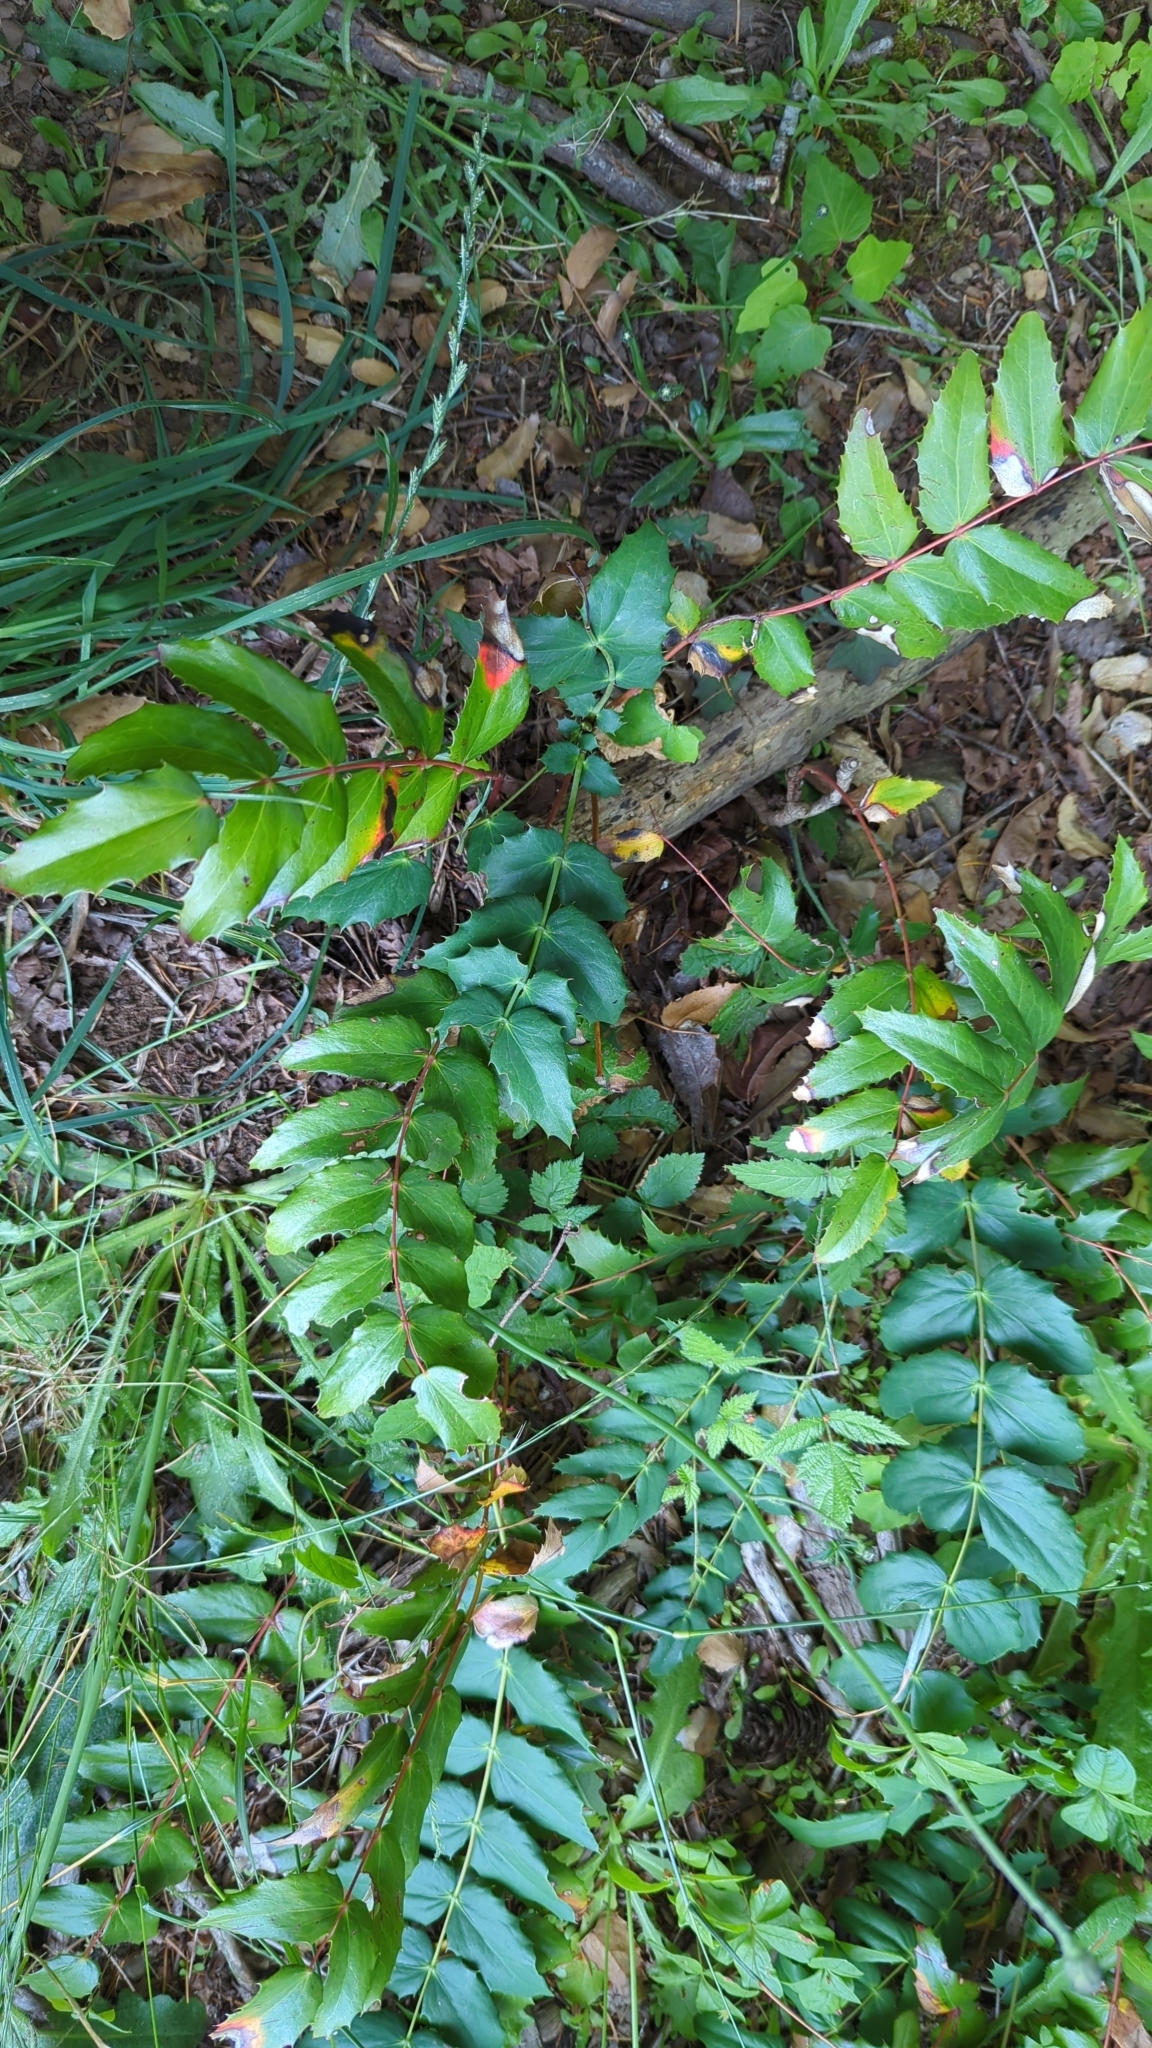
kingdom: Plantae
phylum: Tracheophyta
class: Magnoliopsida
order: Ranunculales
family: Berberidaceae
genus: Mahonia
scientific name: Mahonia nervosa
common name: Cascade oregon-grape
